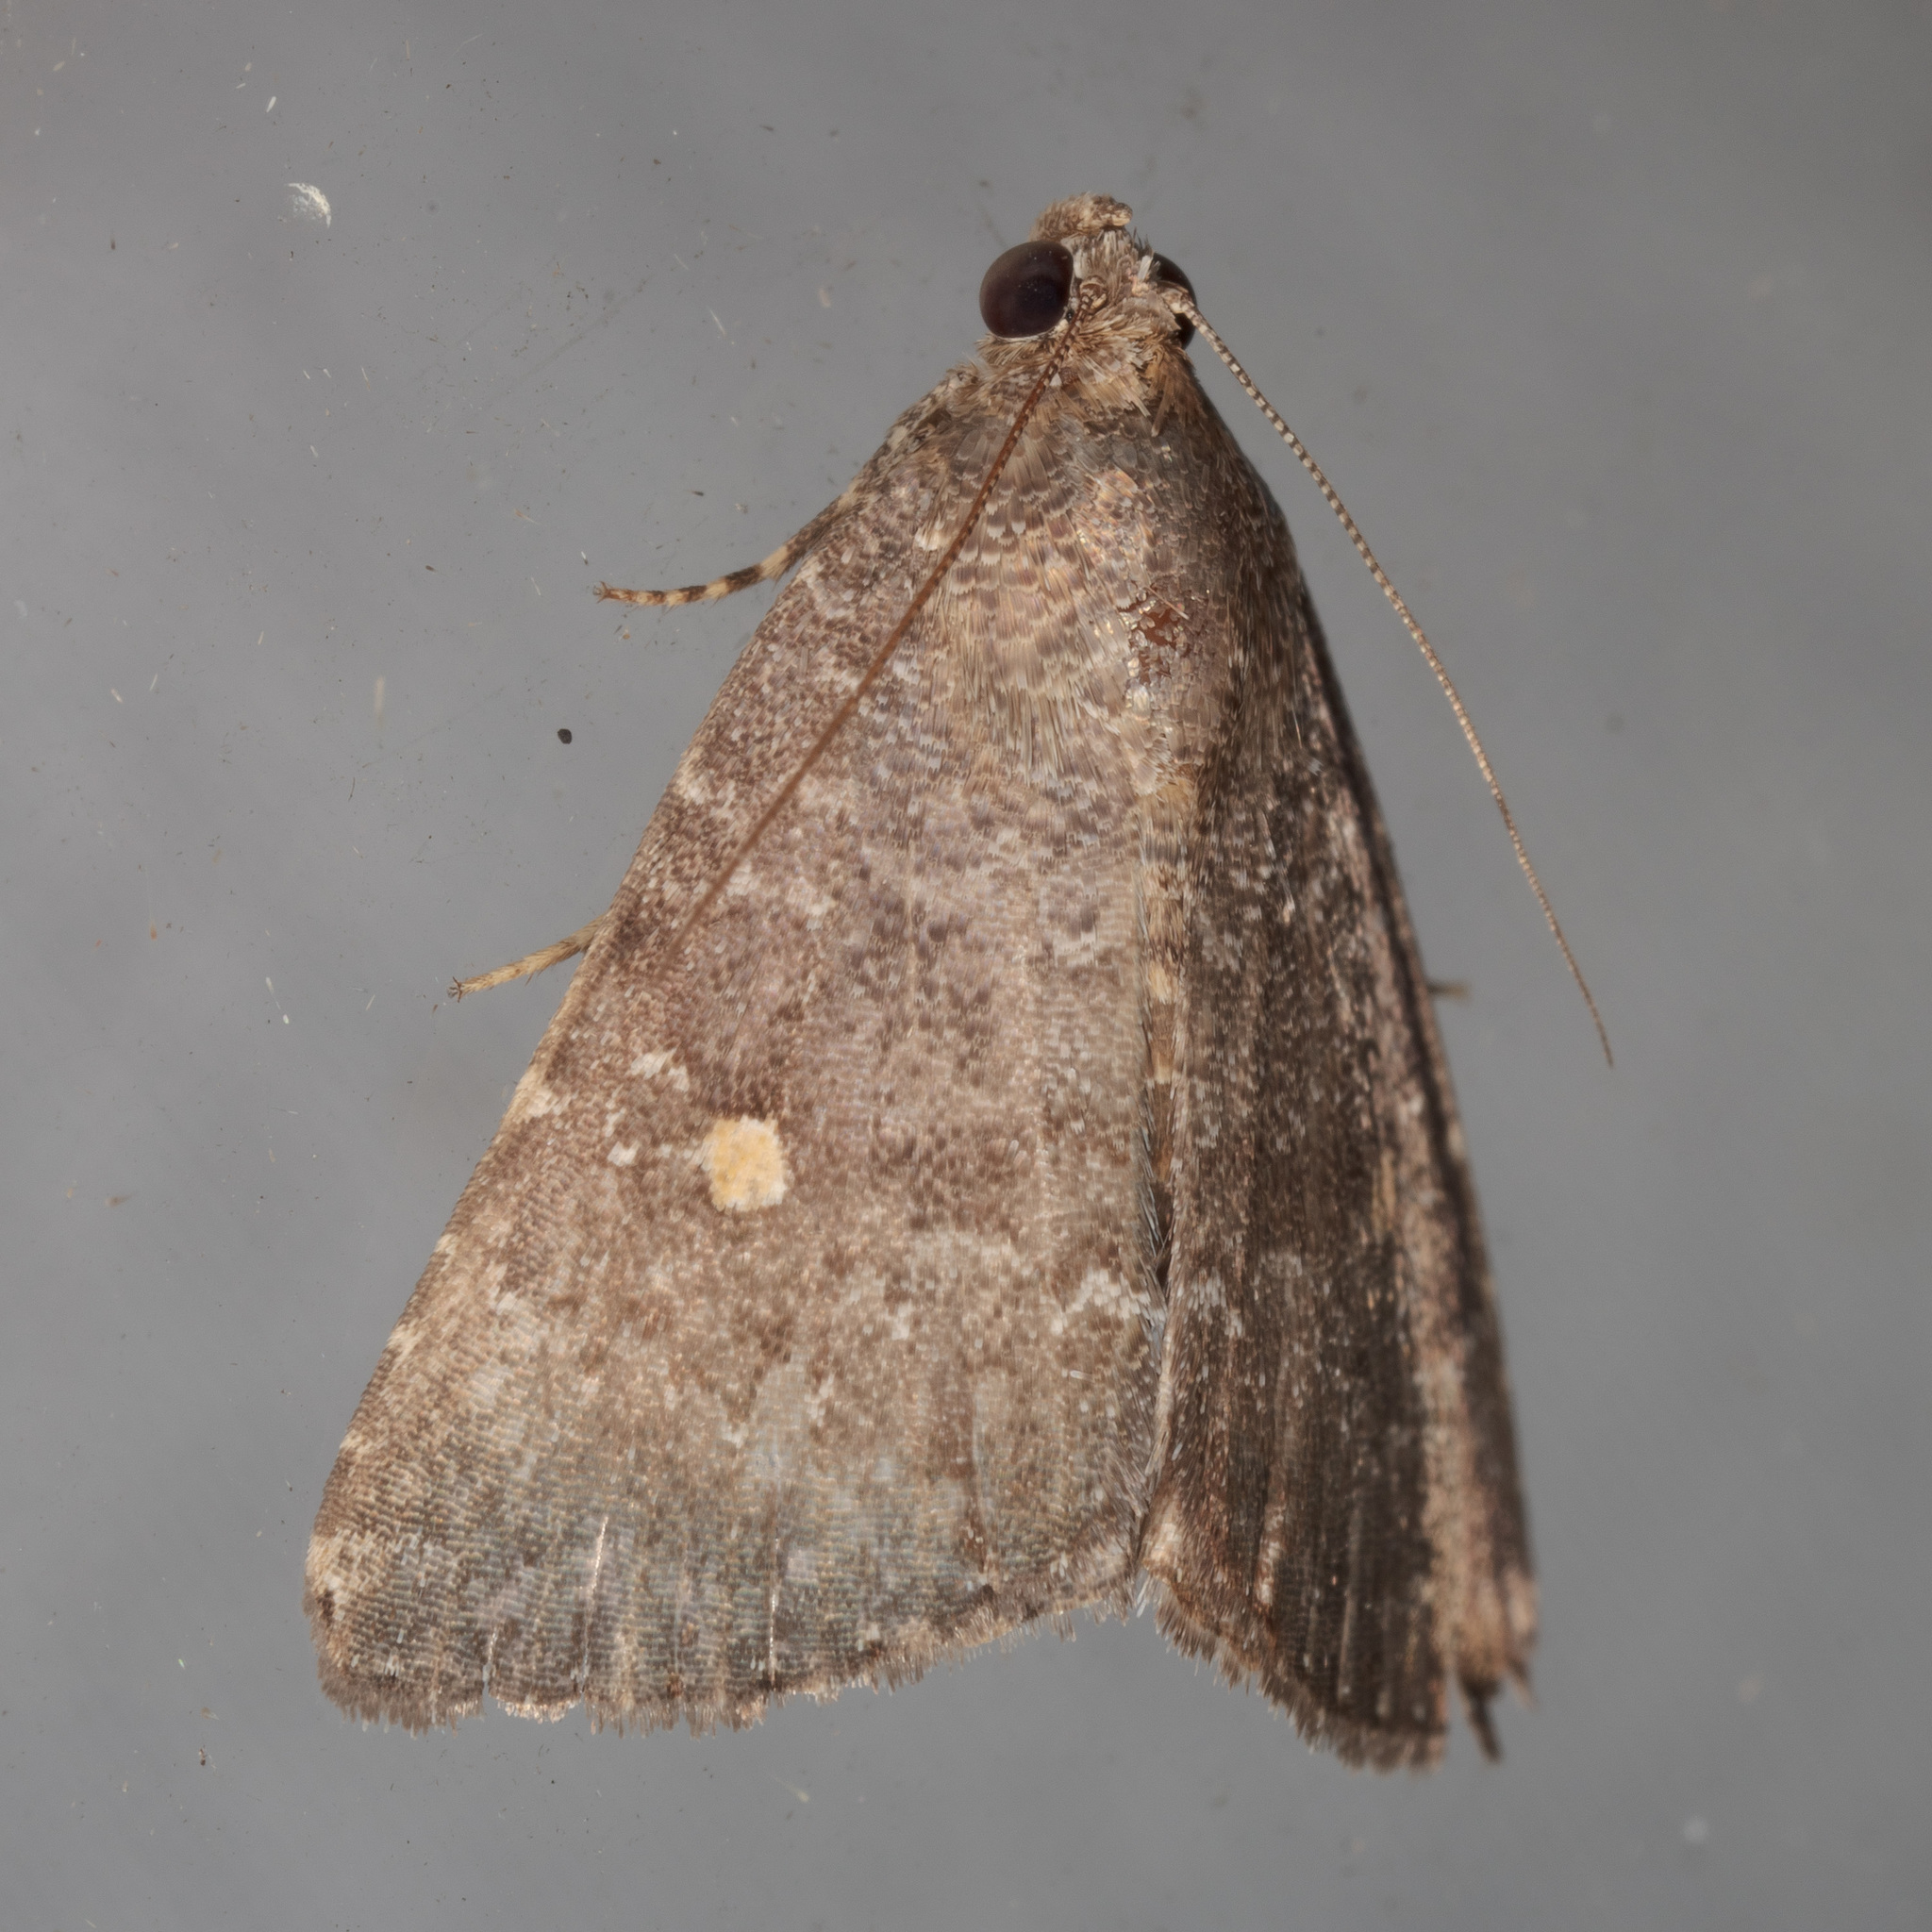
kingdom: Animalia
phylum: Arthropoda
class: Insecta
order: Lepidoptera
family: Noctuidae
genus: Amyna
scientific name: Amyna stricta
